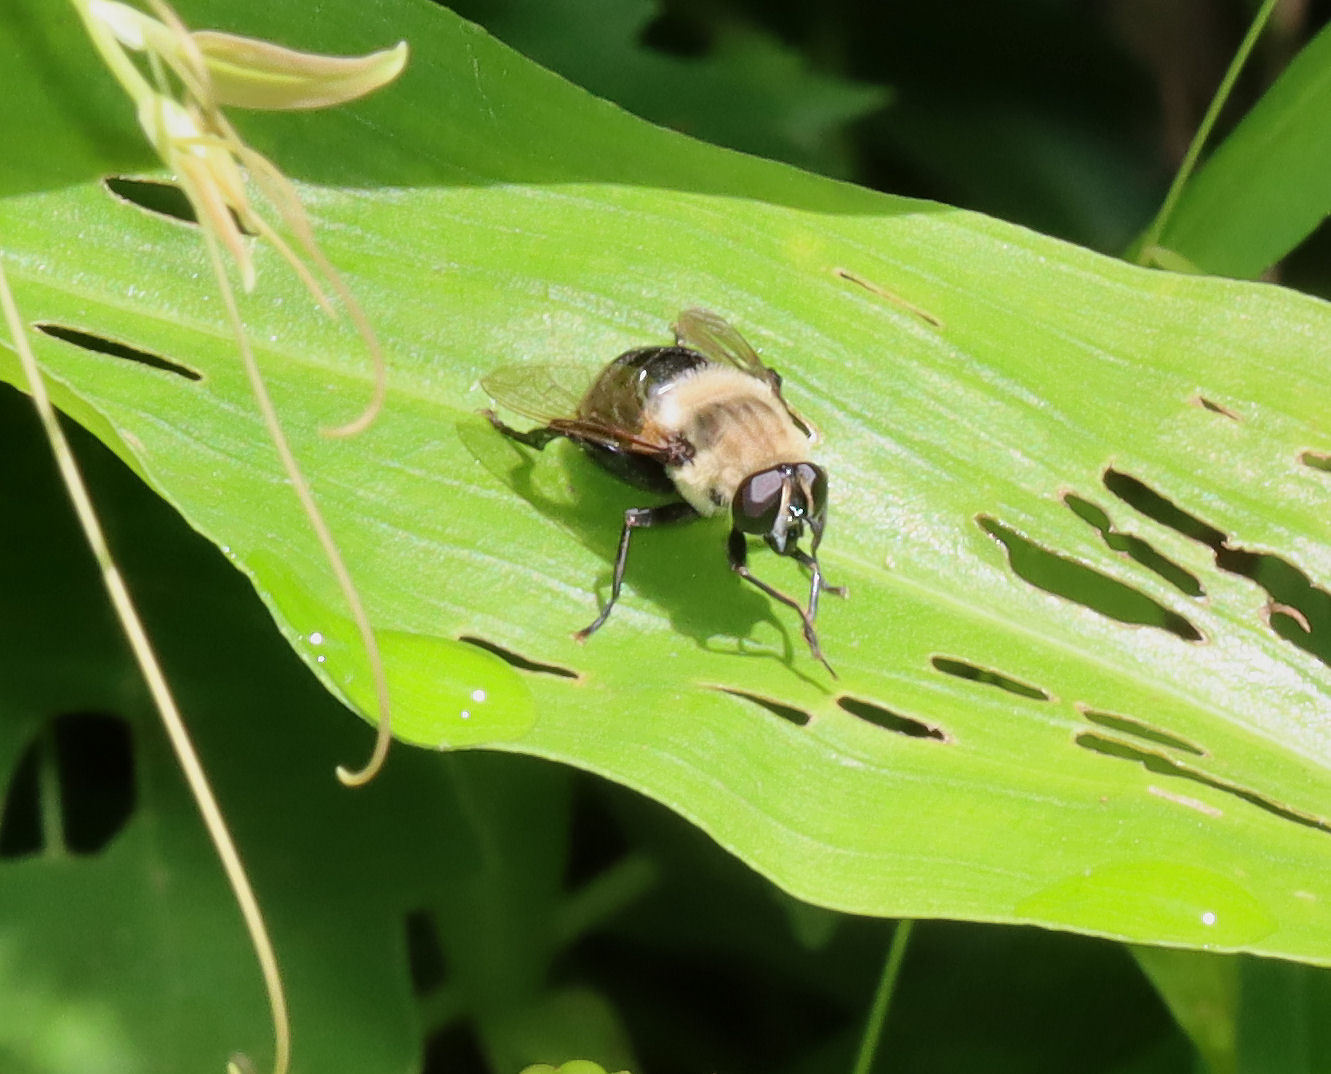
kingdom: Animalia
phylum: Arthropoda
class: Insecta
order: Diptera
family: Syrphidae
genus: Imatisma
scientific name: Imatisma bautias
